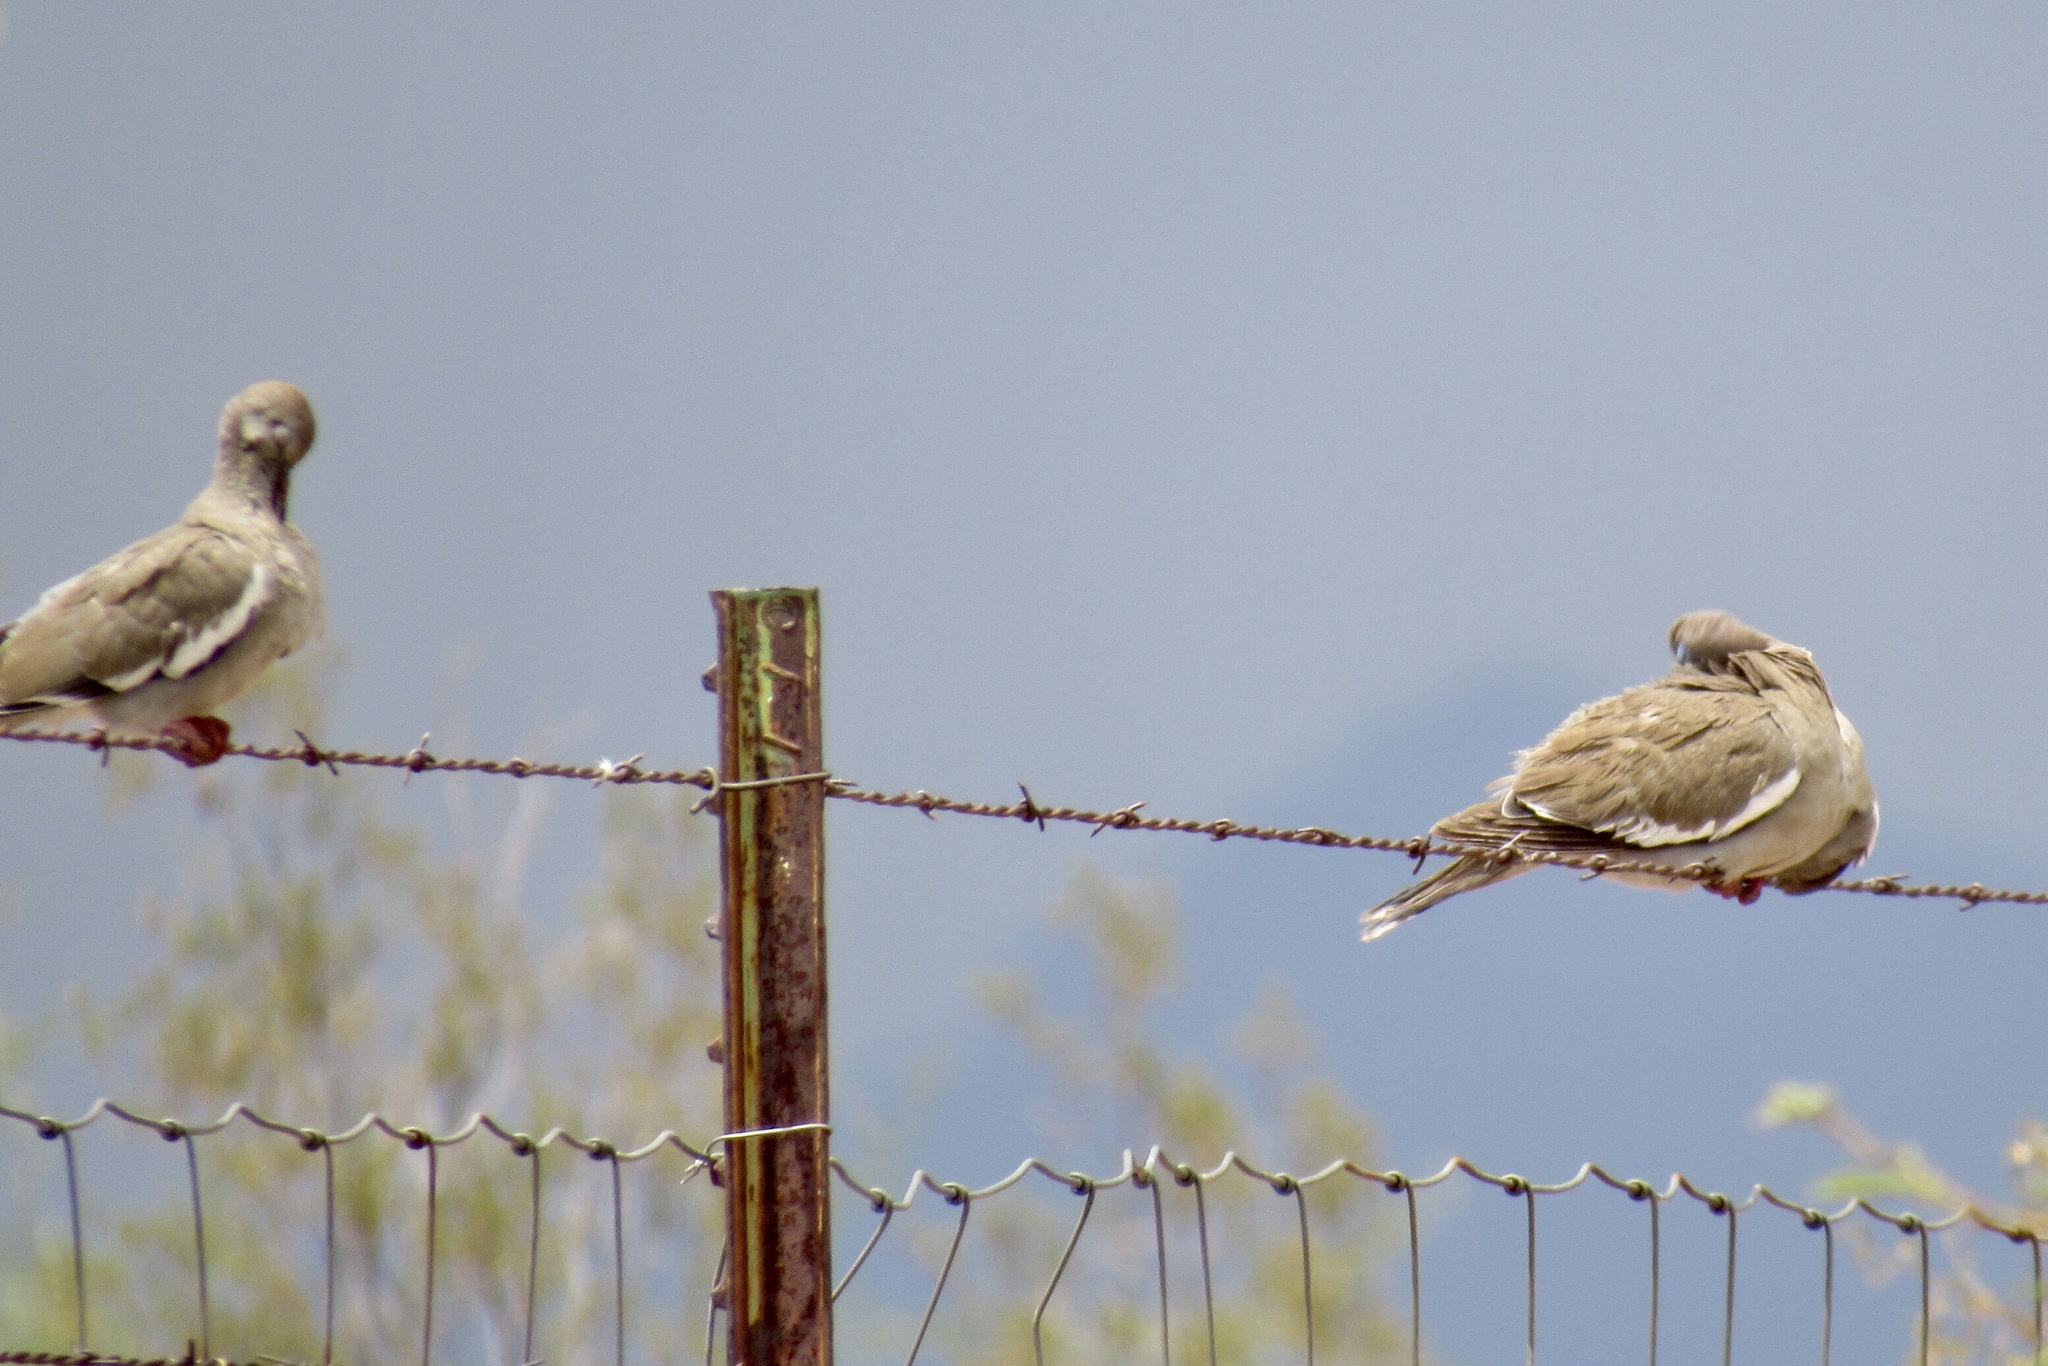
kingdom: Animalia
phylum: Chordata
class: Aves
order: Columbiformes
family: Columbidae
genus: Zenaida
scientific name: Zenaida asiatica
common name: White-winged dove
